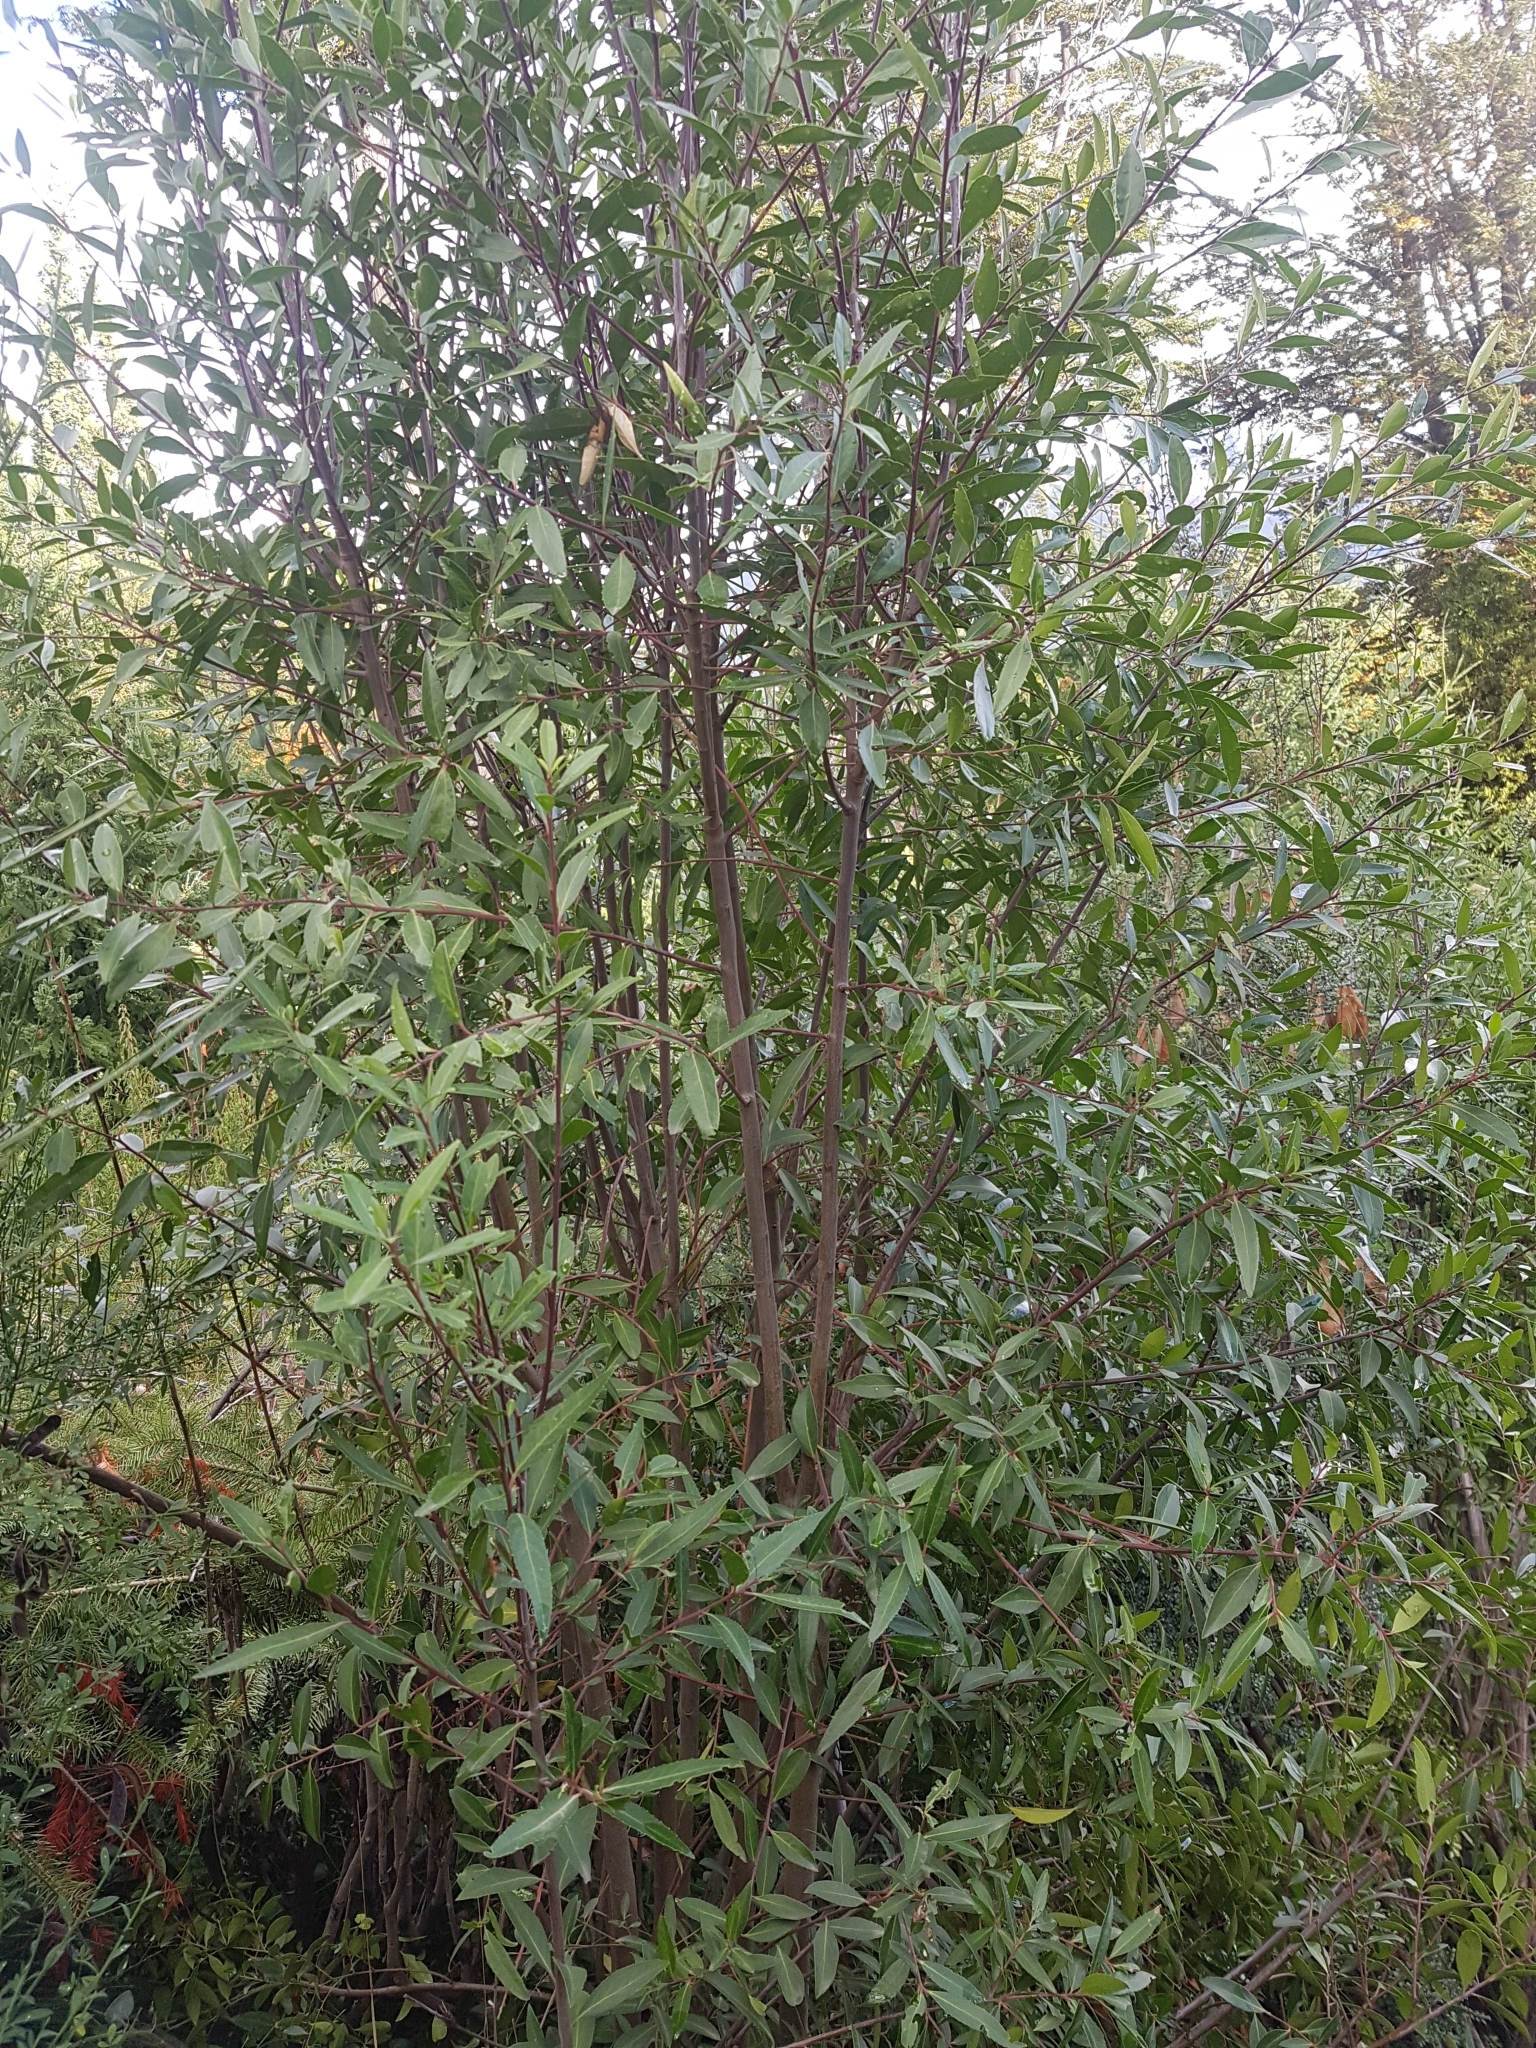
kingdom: Plantae
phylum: Tracheophyta
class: Magnoliopsida
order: Celastrales
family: Celastraceae
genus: Maytenus
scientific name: Maytenus boaria
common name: Mayten
